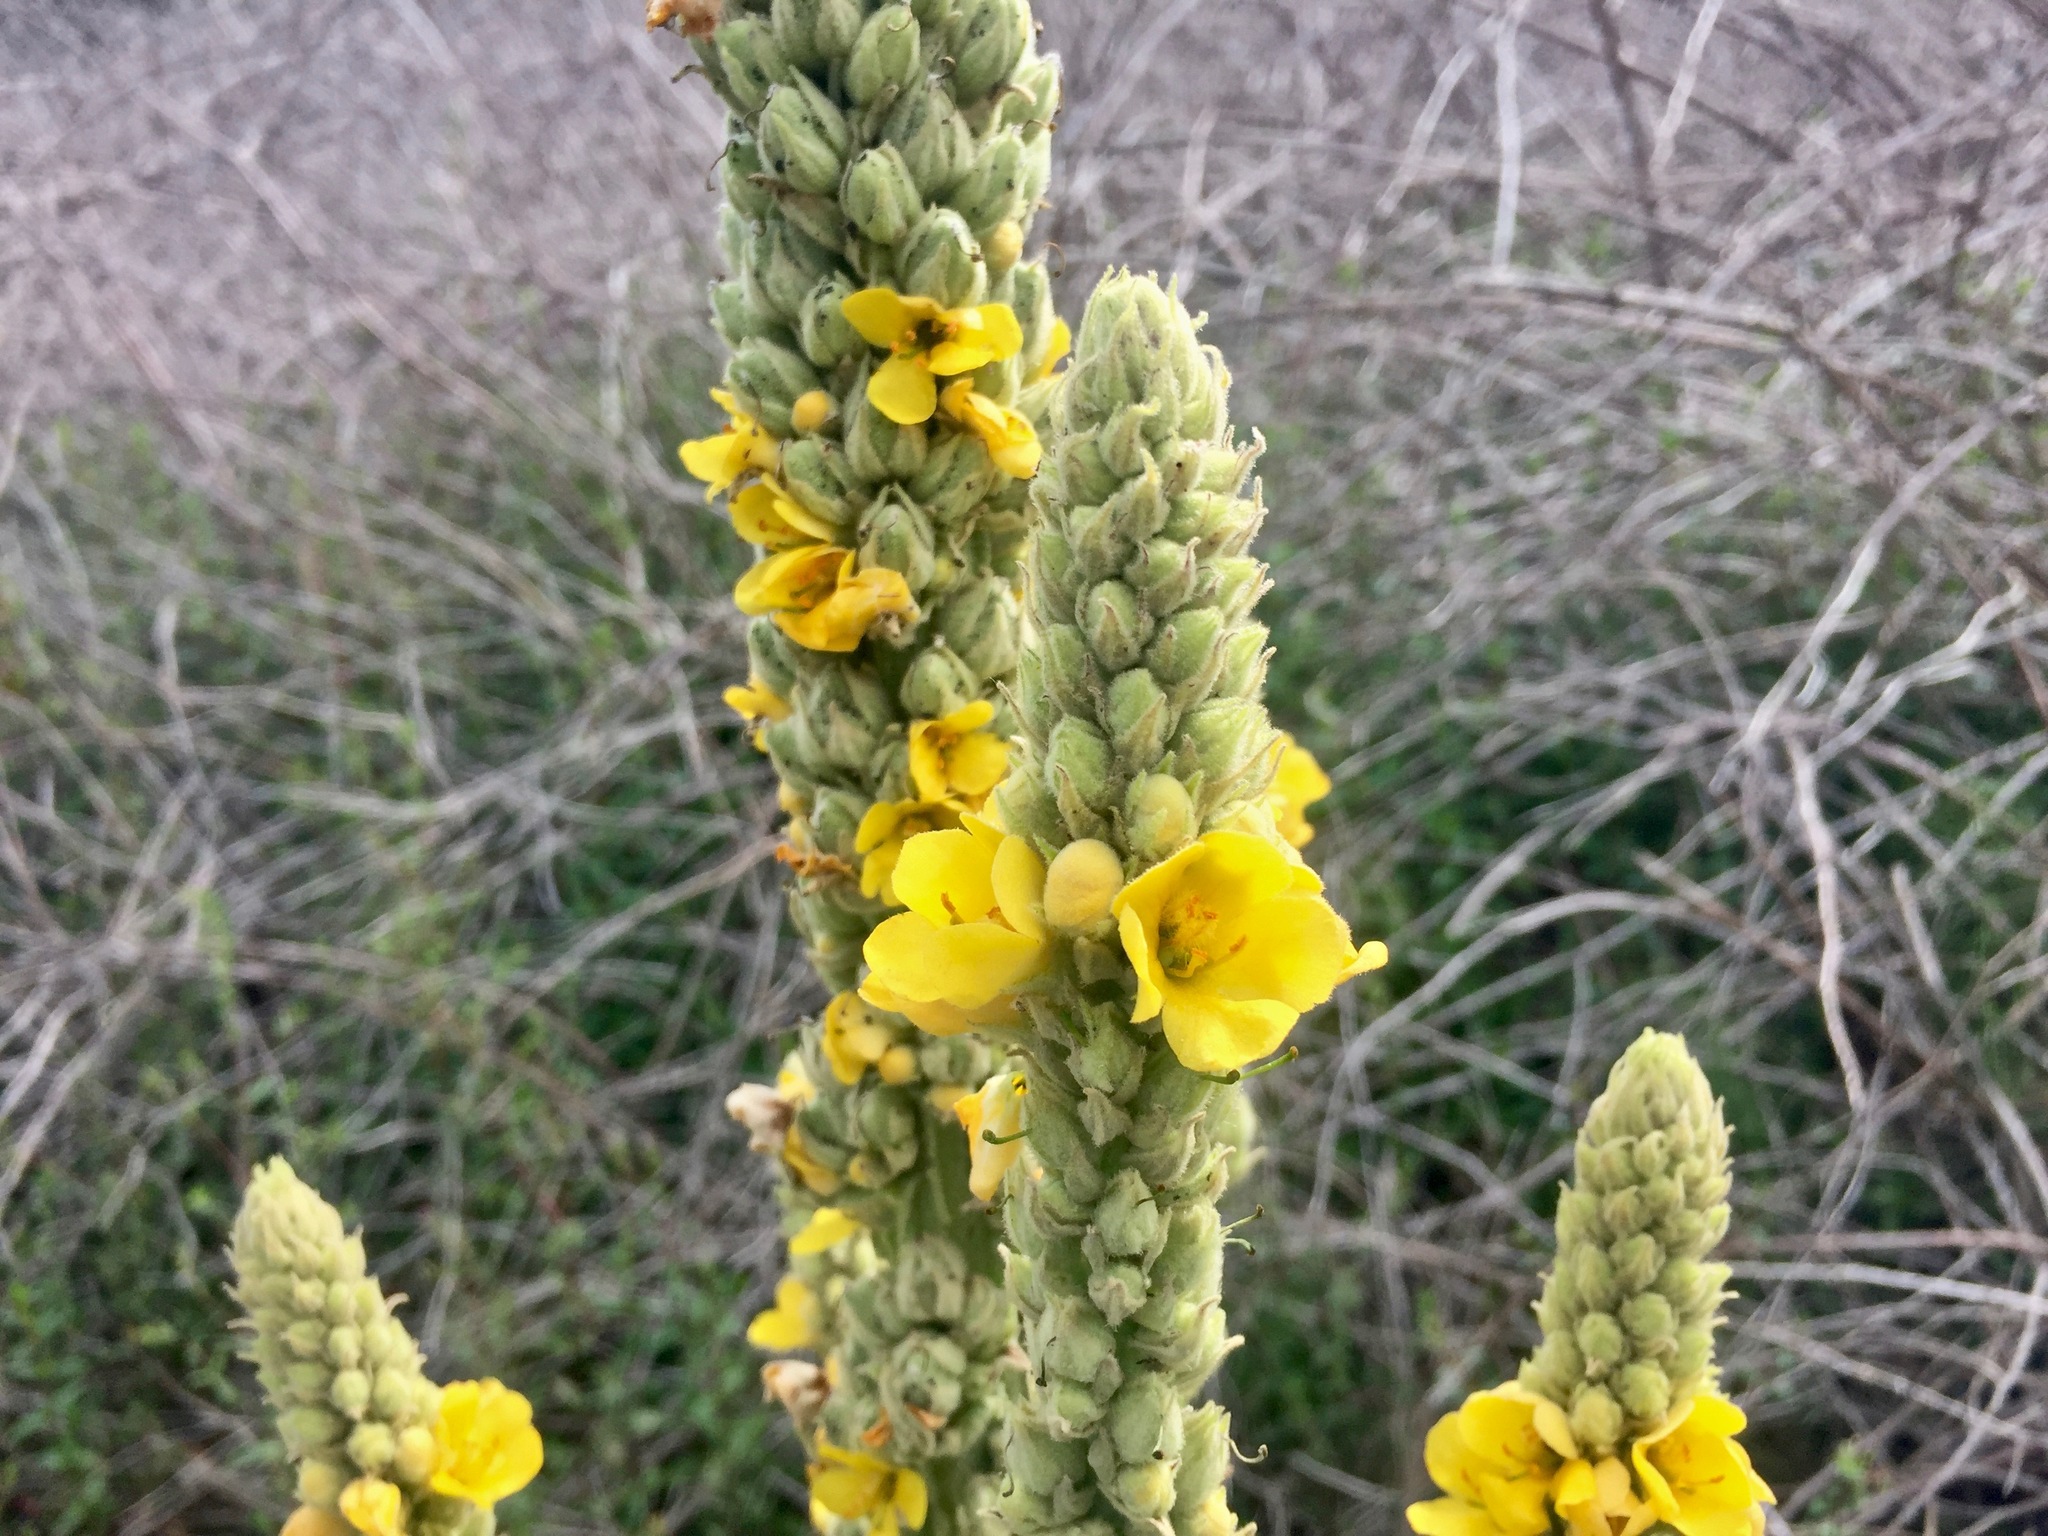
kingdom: Plantae
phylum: Tracheophyta
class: Magnoliopsida
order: Lamiales
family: Scrophulariaceae
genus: Verbascum
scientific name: Verbascum thapsus
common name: Common mullein
